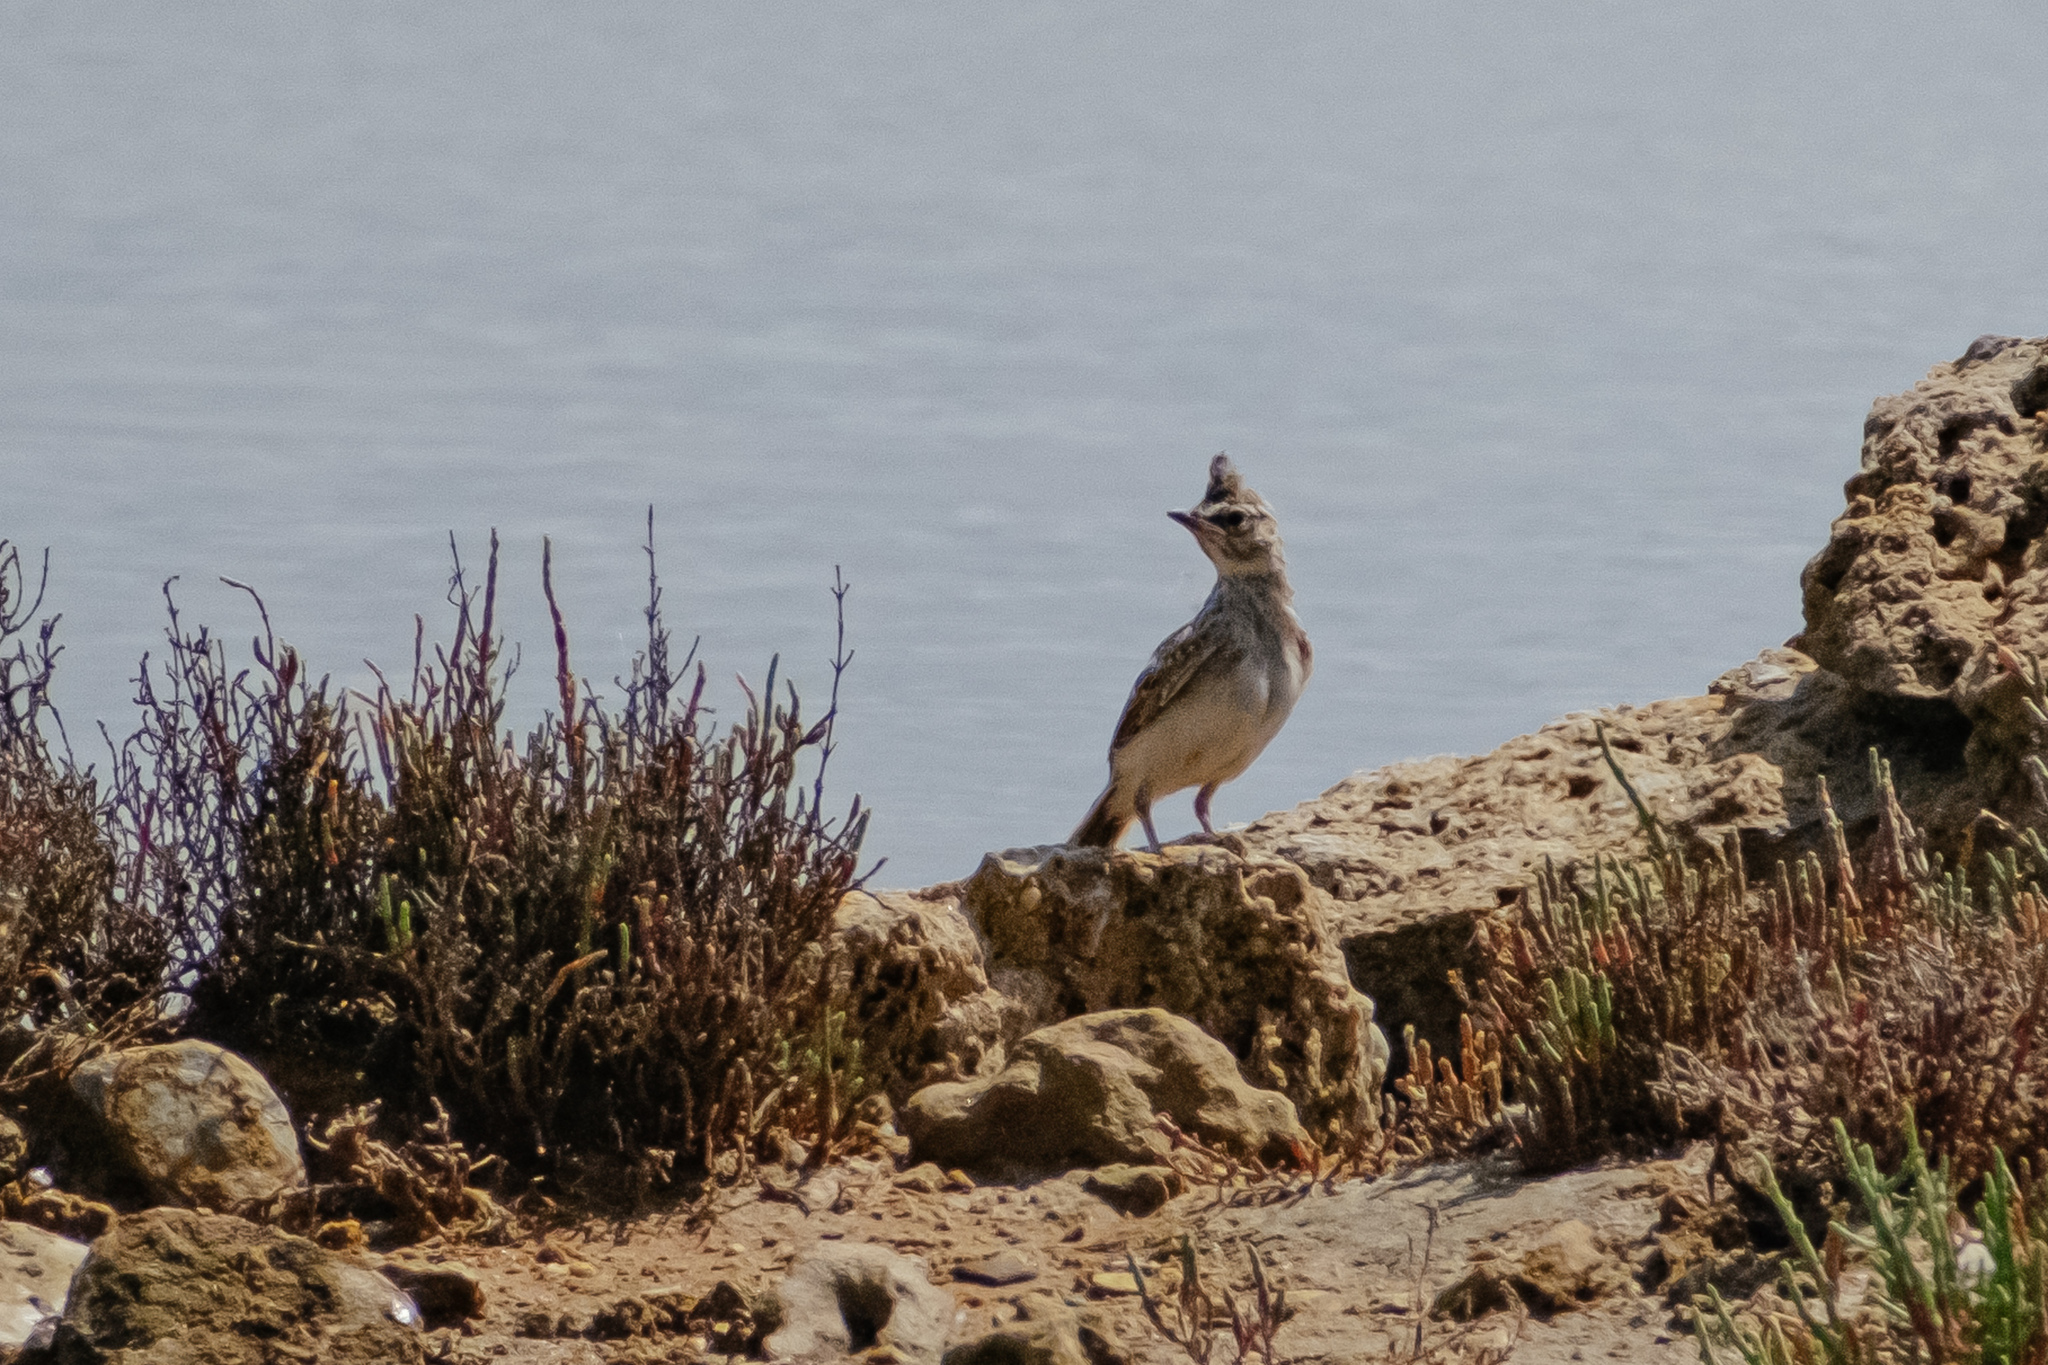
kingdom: Animalia
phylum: Chordata
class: Aves
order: Passeriformes
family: Alaudidae
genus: Galerida
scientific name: Galerida cristata
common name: Crested lark
